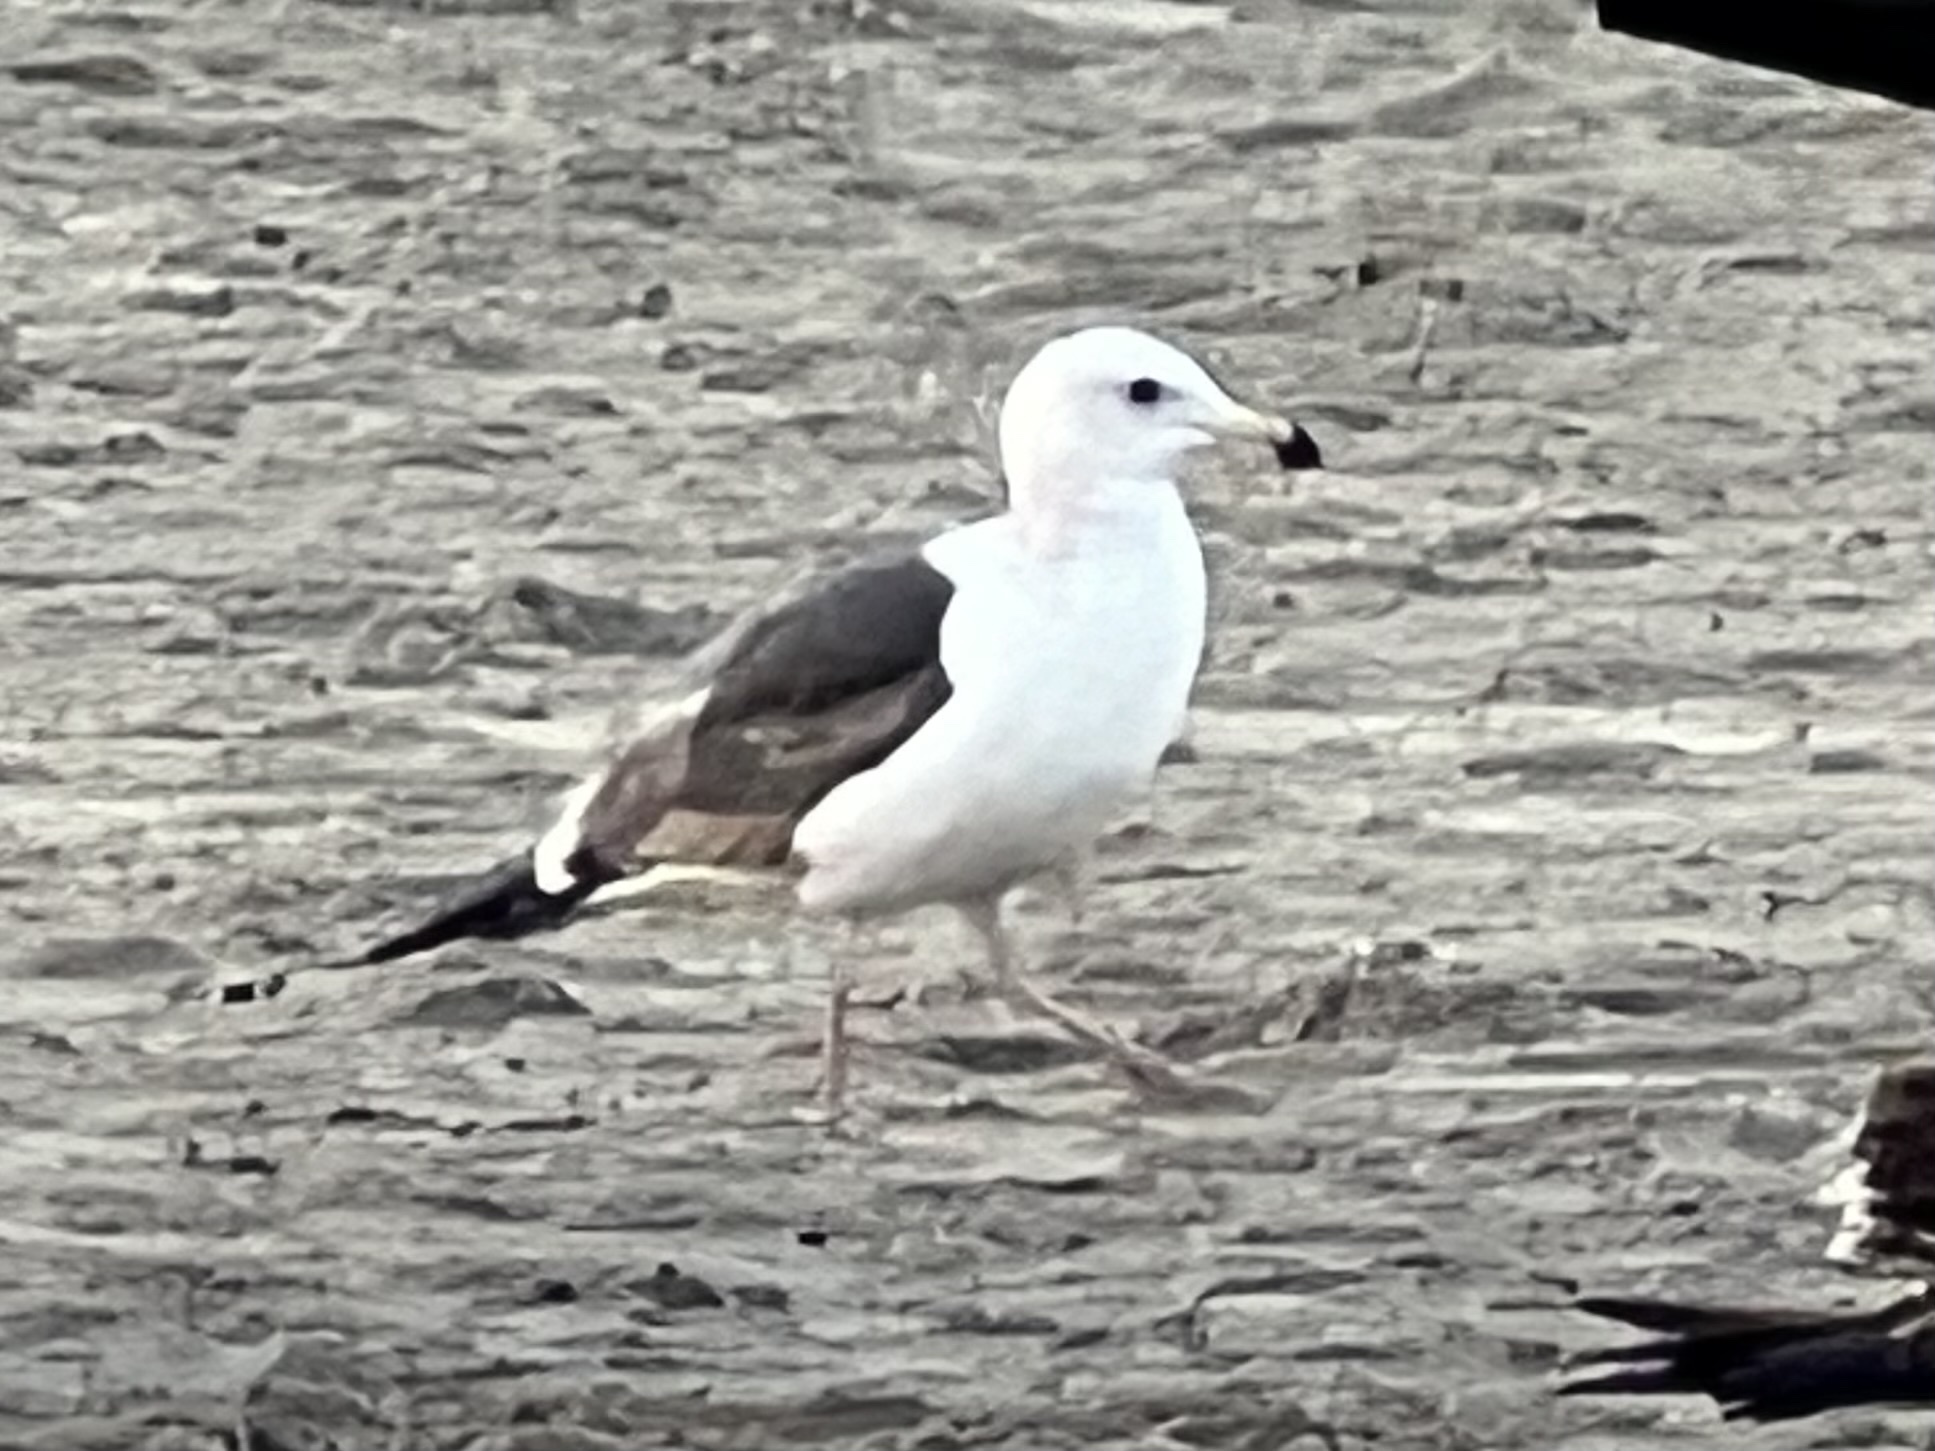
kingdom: Animalia
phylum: Chordata
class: Aves
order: Charadriiformes
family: Laridae
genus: Larus
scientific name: Larus occidentalis
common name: Western gull
